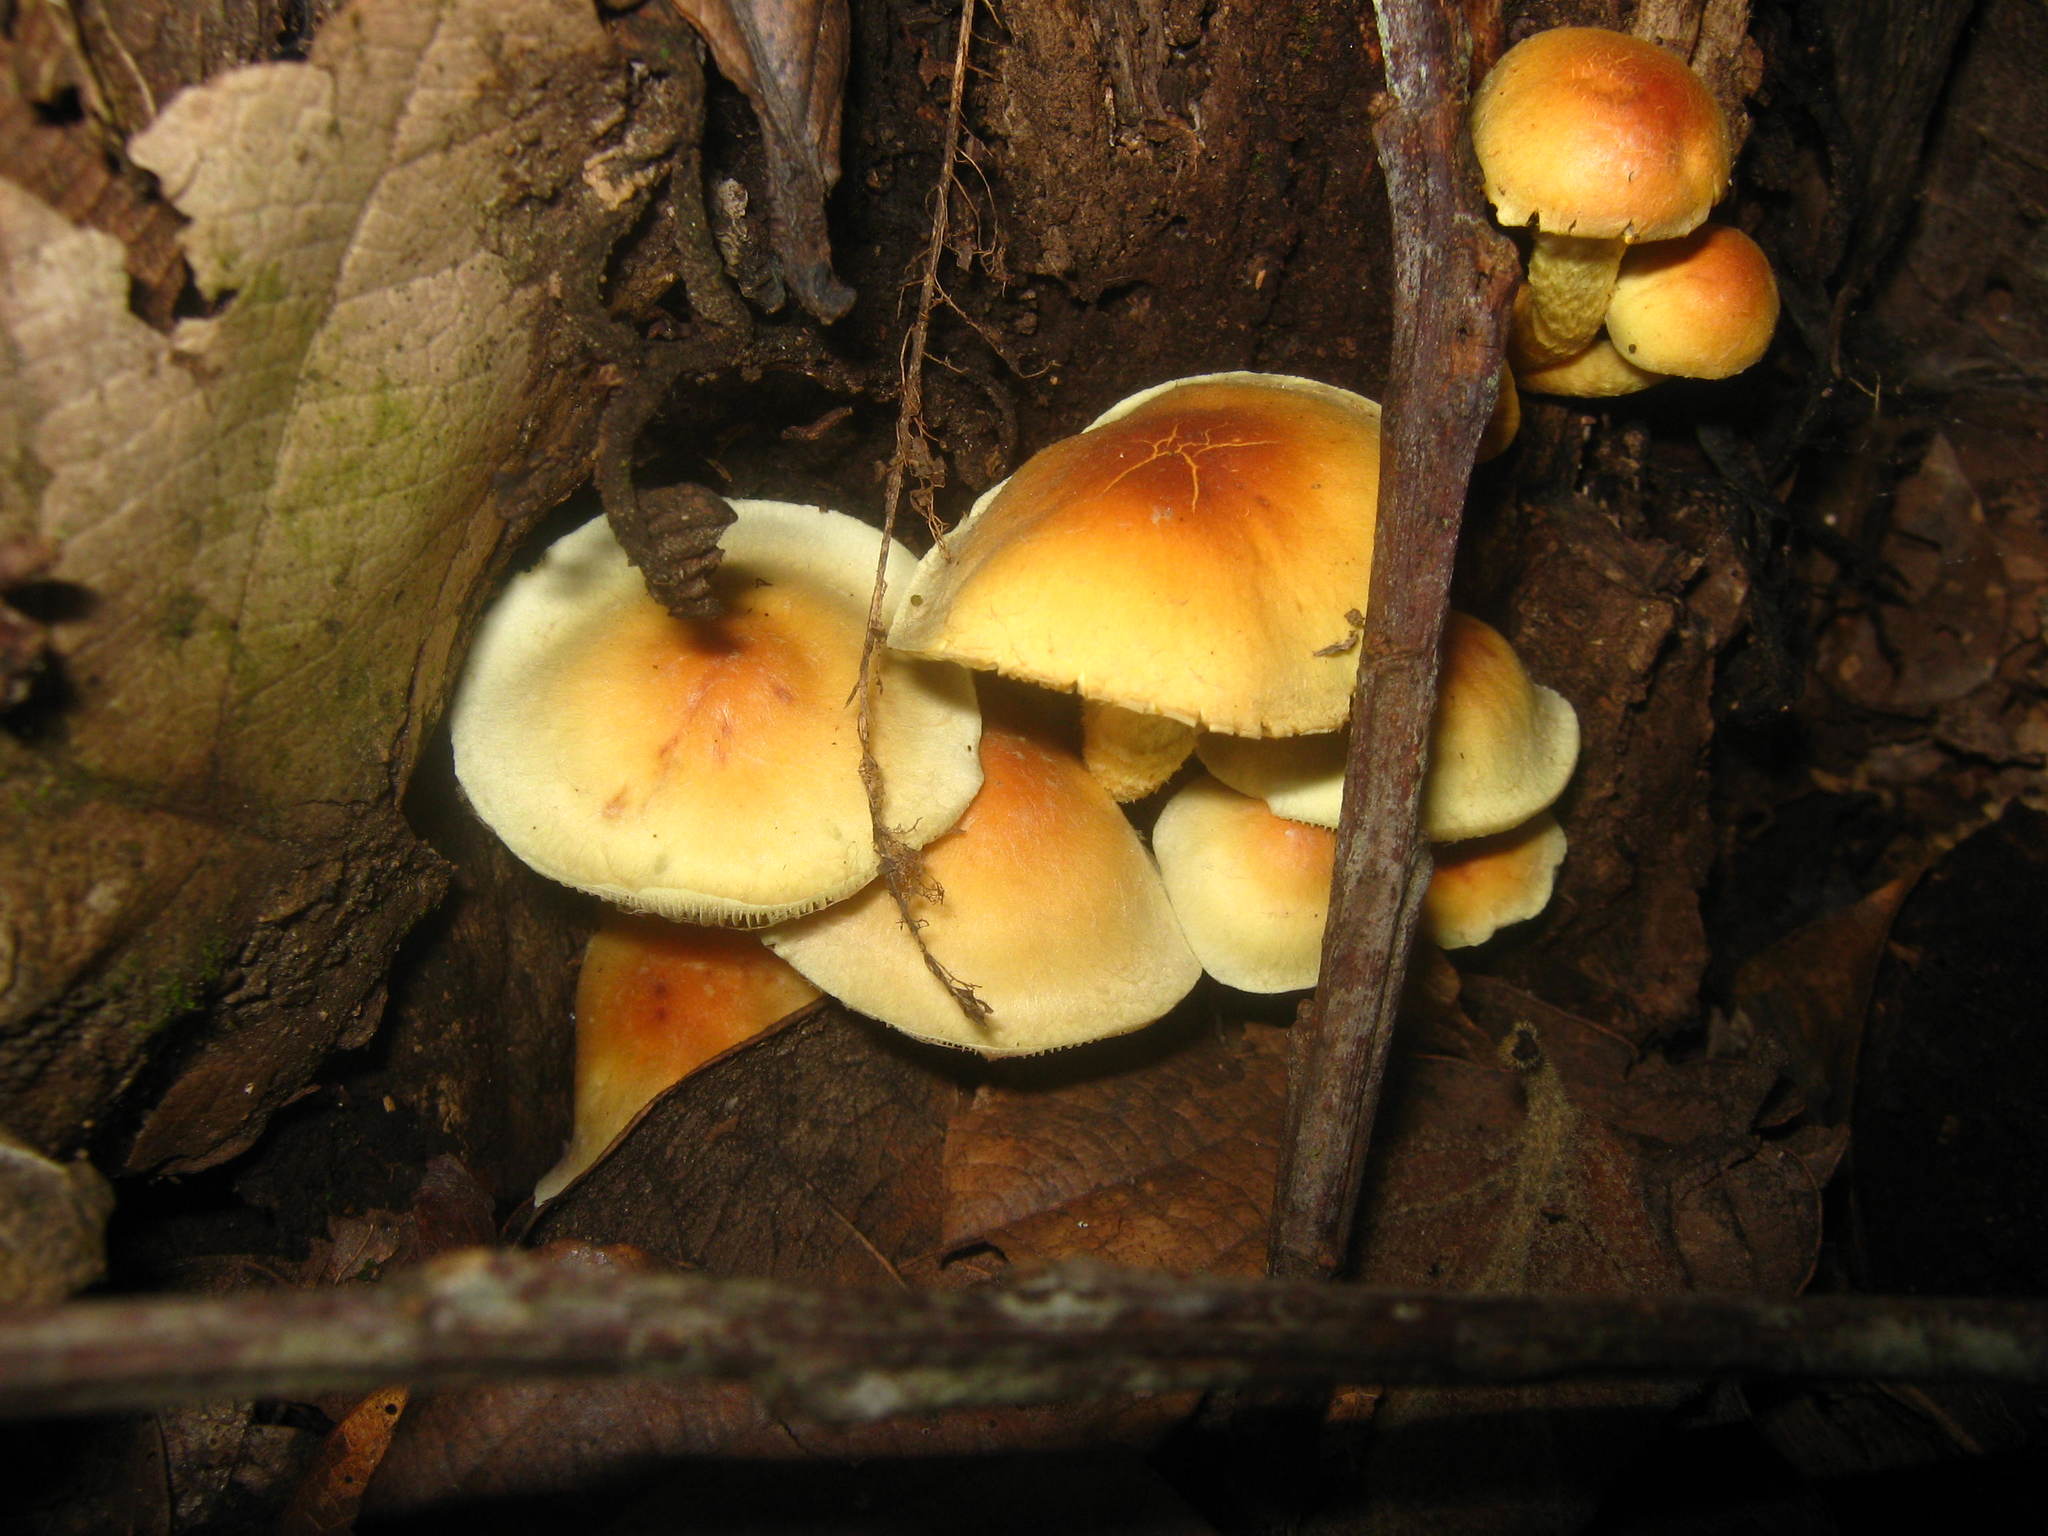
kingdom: Fungi
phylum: Basidiomycota
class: Agaricomycetes
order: Agaricales
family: Strophariaceae
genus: Hypholoma
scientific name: Hypholoma fasciculare
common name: Sulphur tuft
